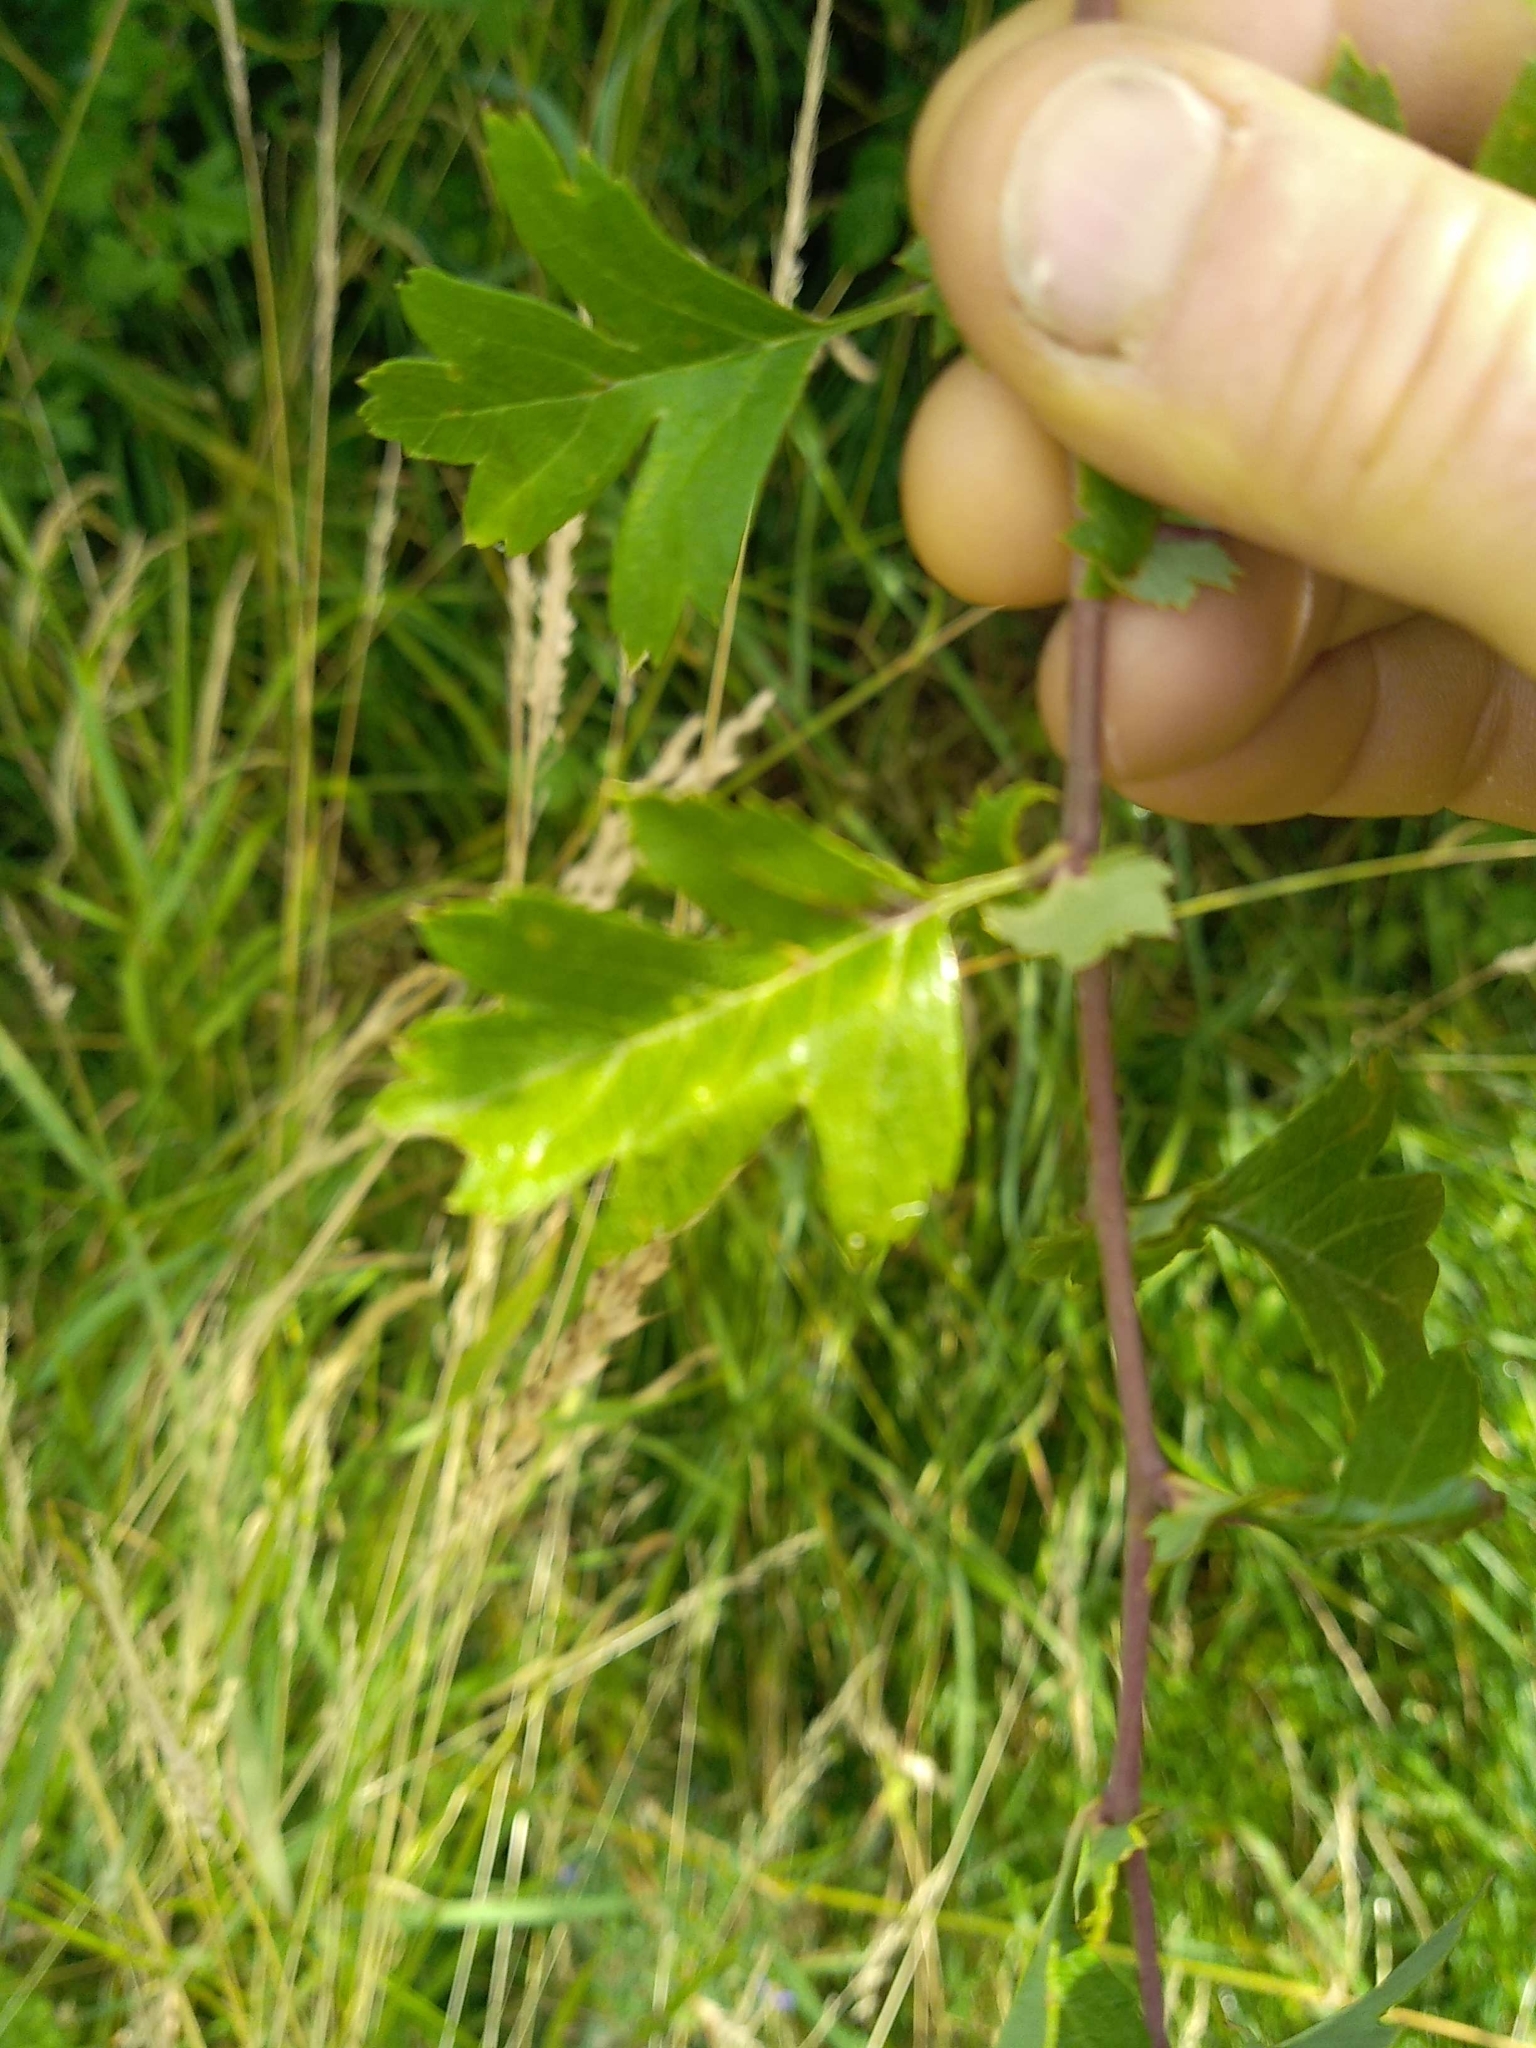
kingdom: Plantae
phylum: Tracheophyta
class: Magnoliopsida
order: Rosales
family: Rosaceae
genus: Crataegus
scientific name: Crataegus monogyna
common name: Hawthorn
